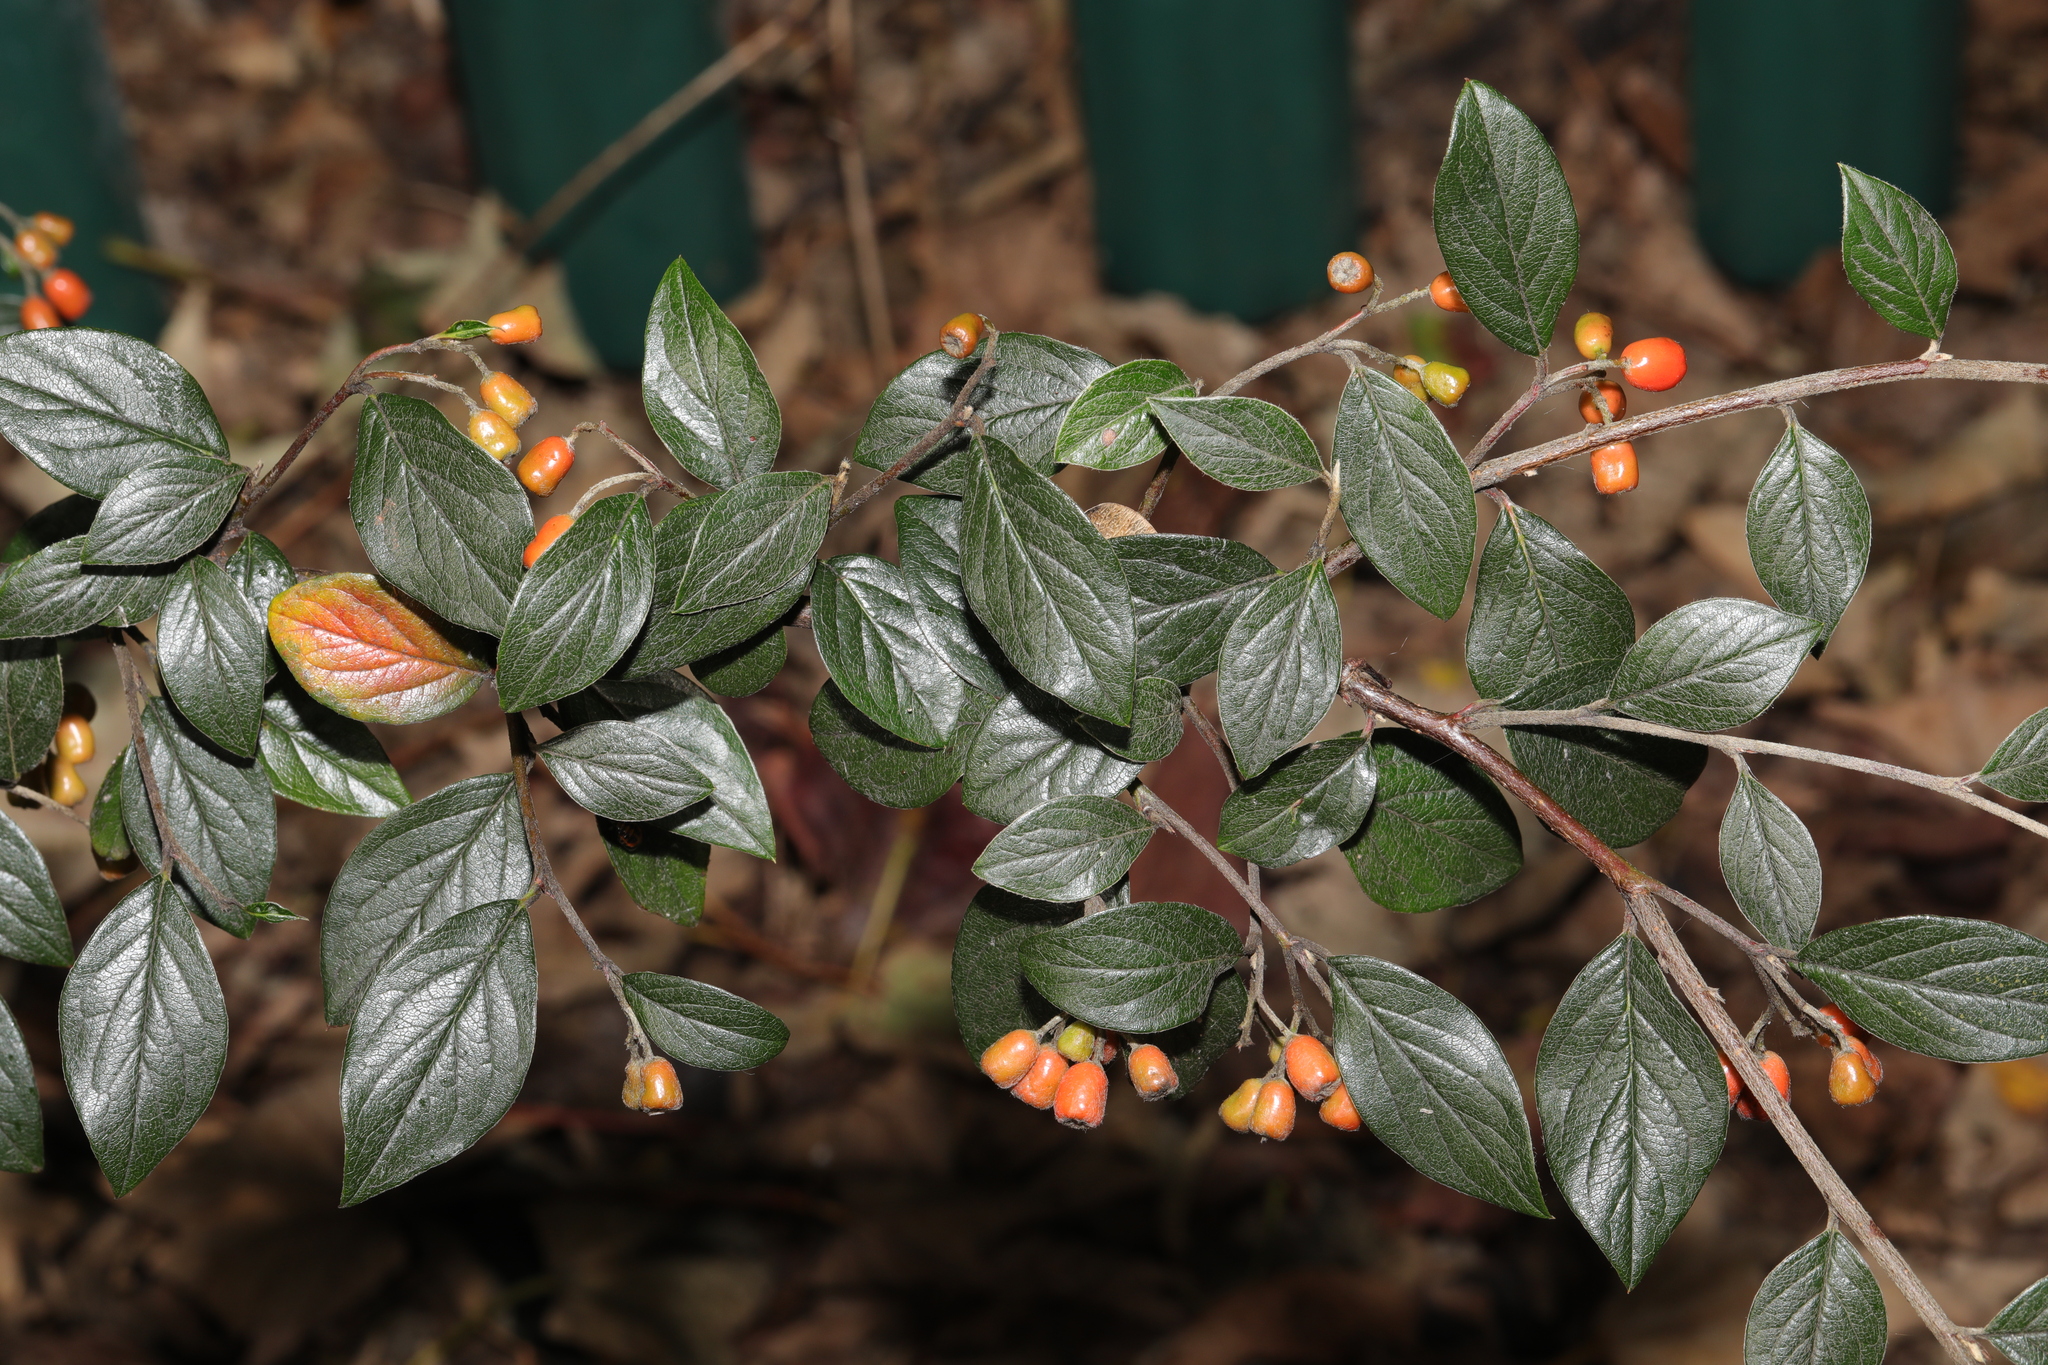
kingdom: Plantae
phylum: Tracheophyta
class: Magnoliopsida
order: Rosales
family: Rosaceae
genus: Cotoneaster
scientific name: Cotoneaster franchetii
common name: Franchet's cotoneaster
